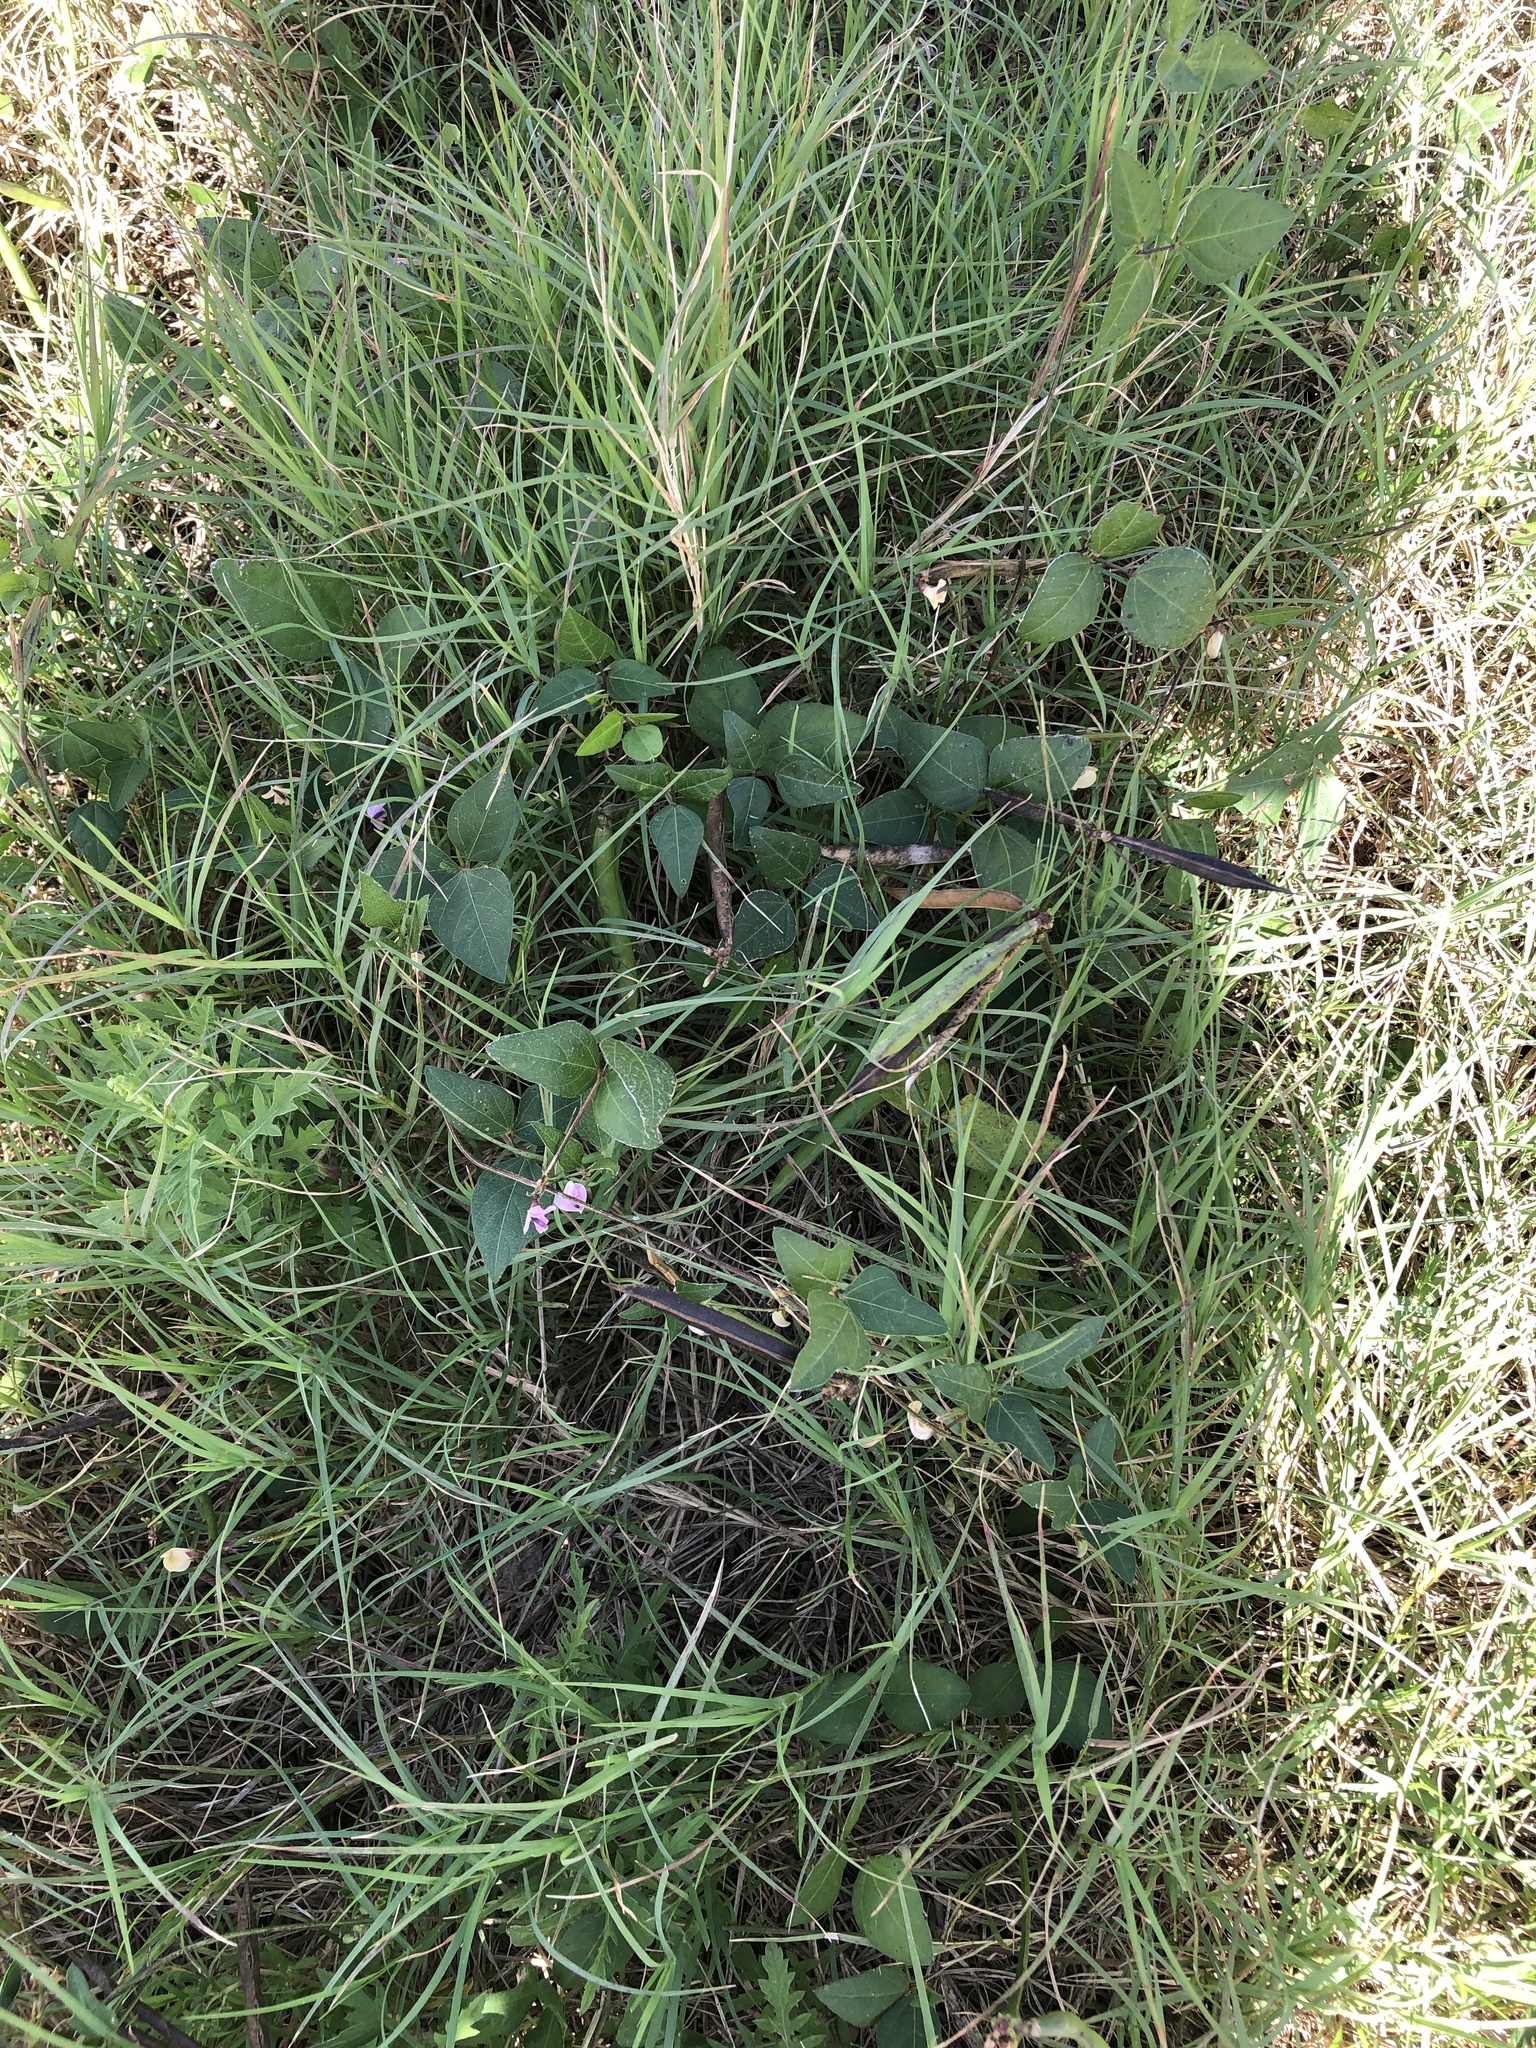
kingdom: Plantae
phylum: Tracheophyta
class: Magnoliopsida
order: Fabales
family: Fabaceae
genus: Strophostyles
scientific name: Strophostyles helvola
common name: Trailing wild bean
